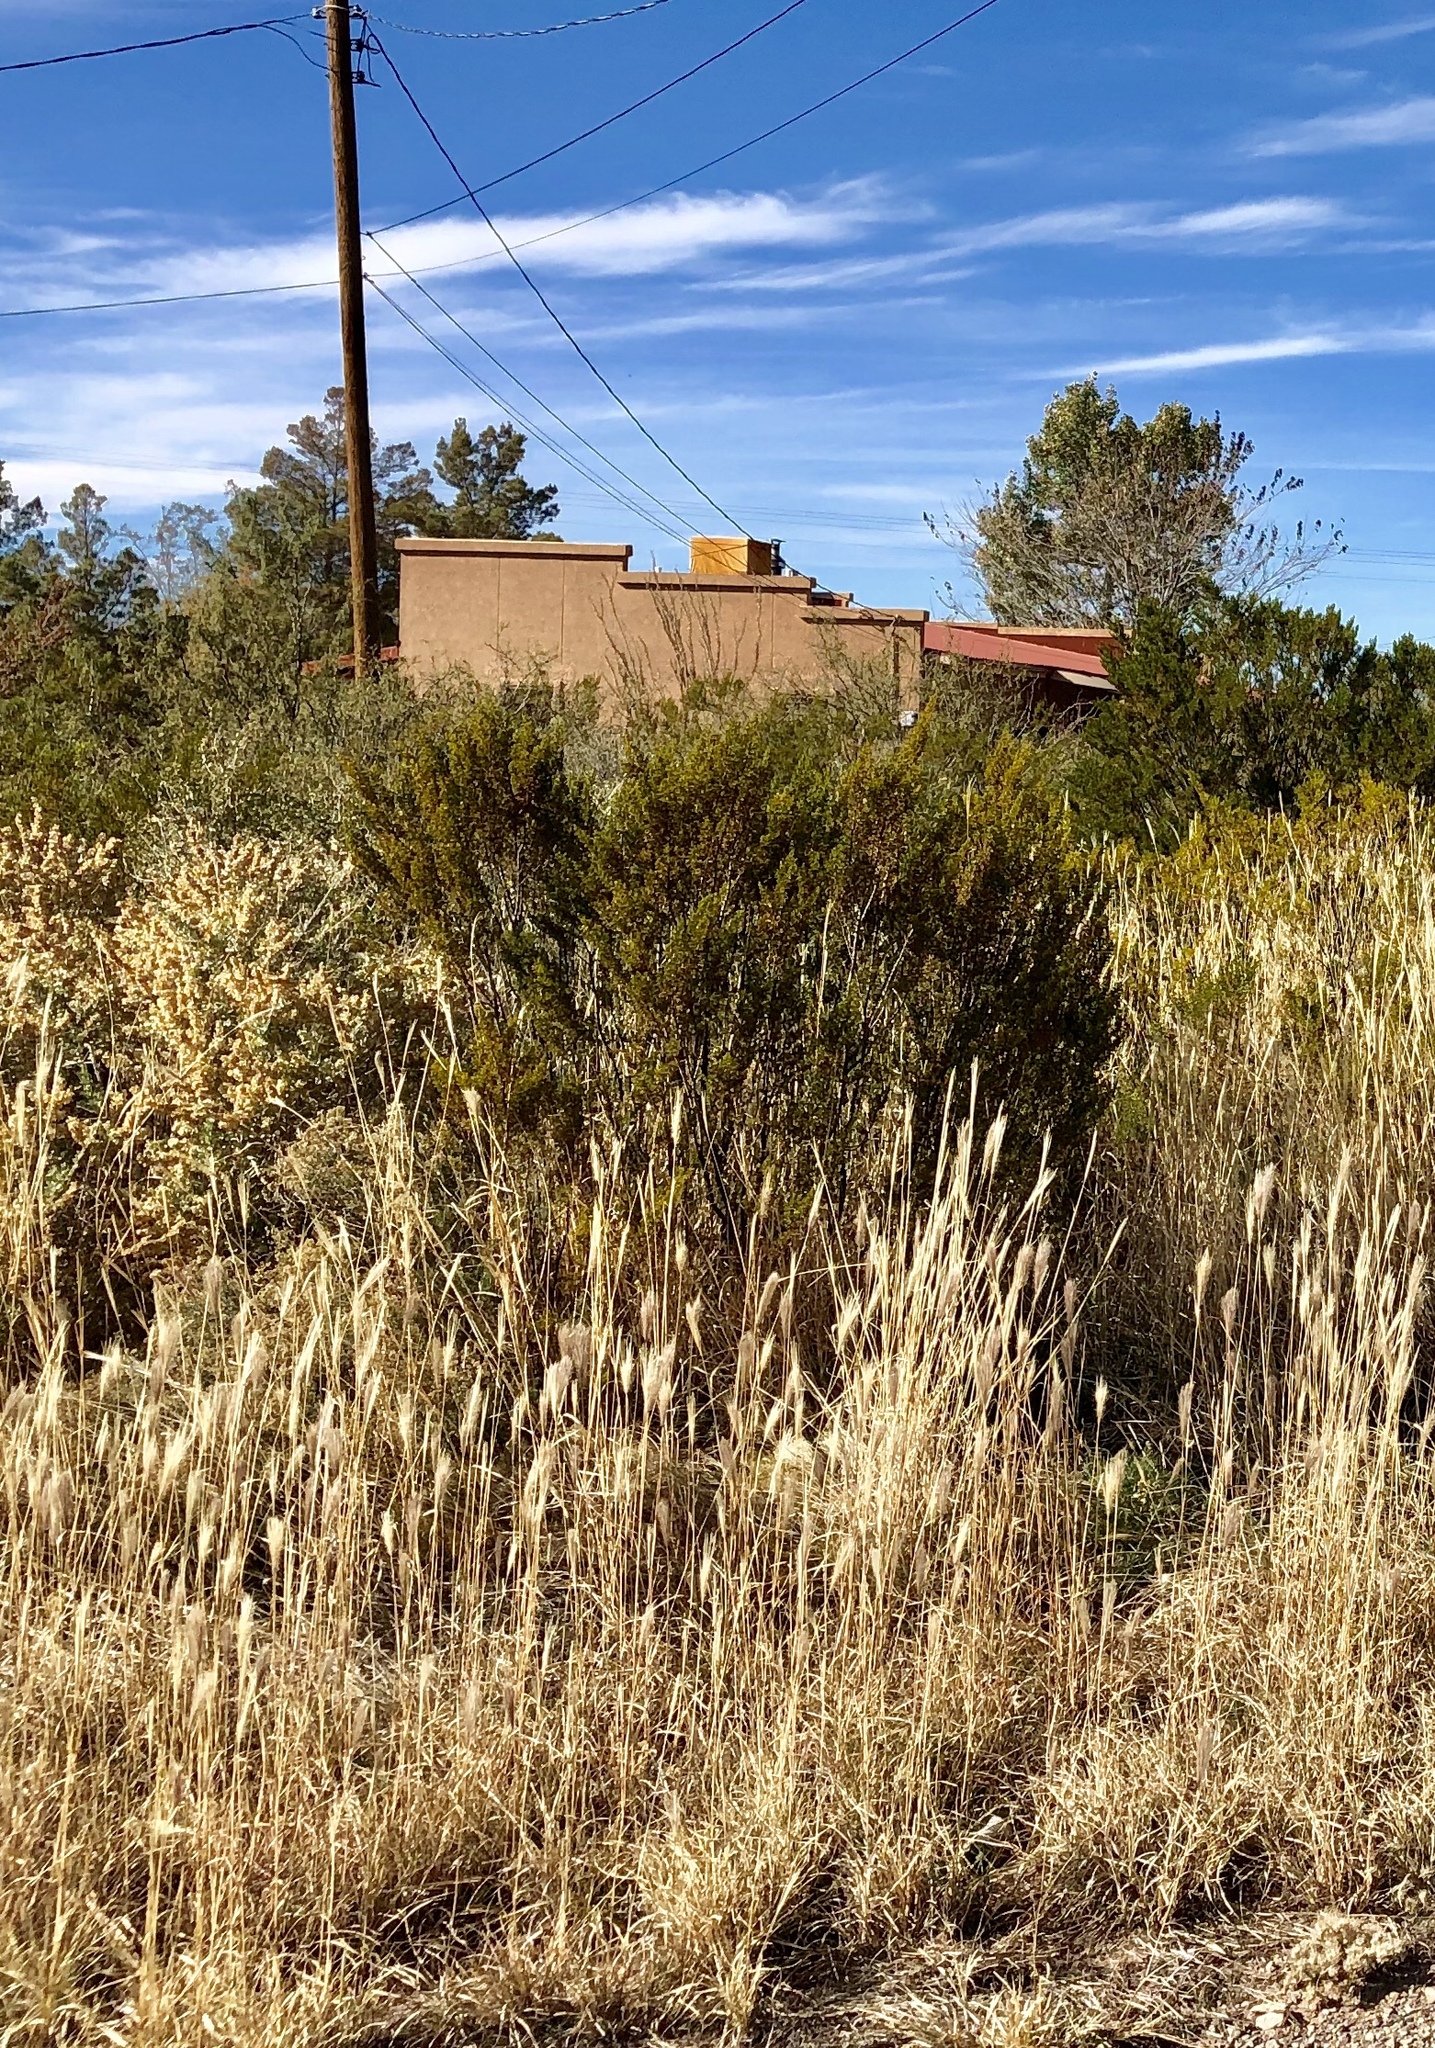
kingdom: Plantae
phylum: Tracheophyta
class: Magnoliopsida
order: Zygophyllales
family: Zygophyllaceae
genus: Larrea
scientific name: Larrea tridentata
